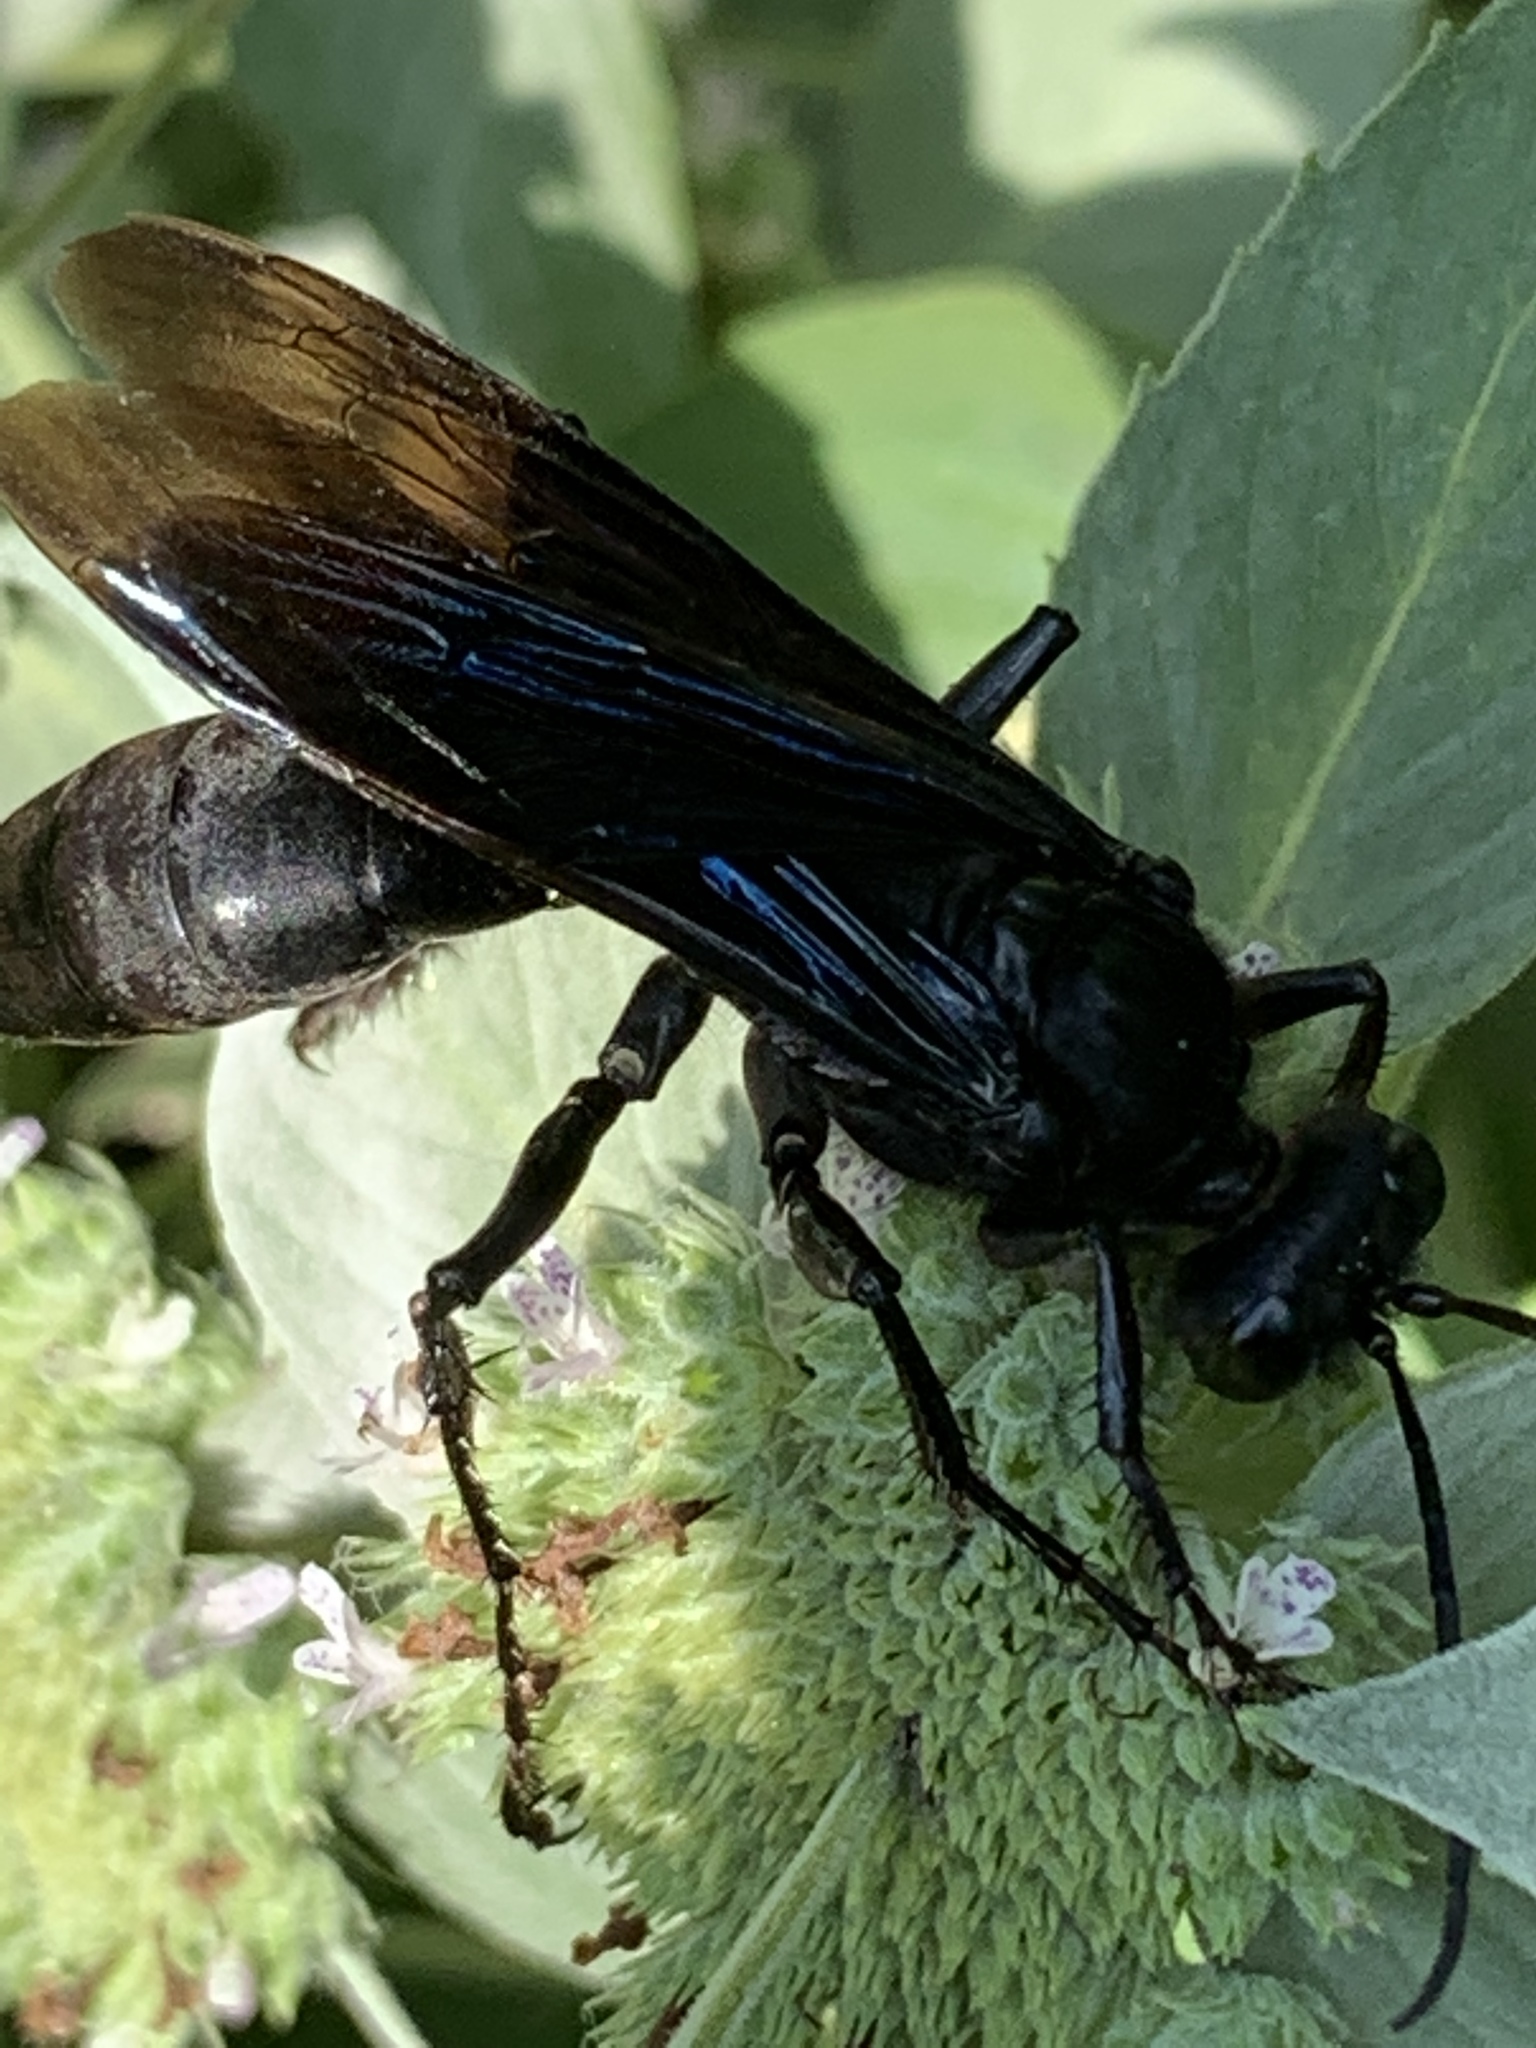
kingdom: Animalia
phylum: Arthropoda
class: Insecta
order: Hymenoptera
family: Sphecidae
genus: Sphex
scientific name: Sphex pensylvanicus
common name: Great black digger wasp
